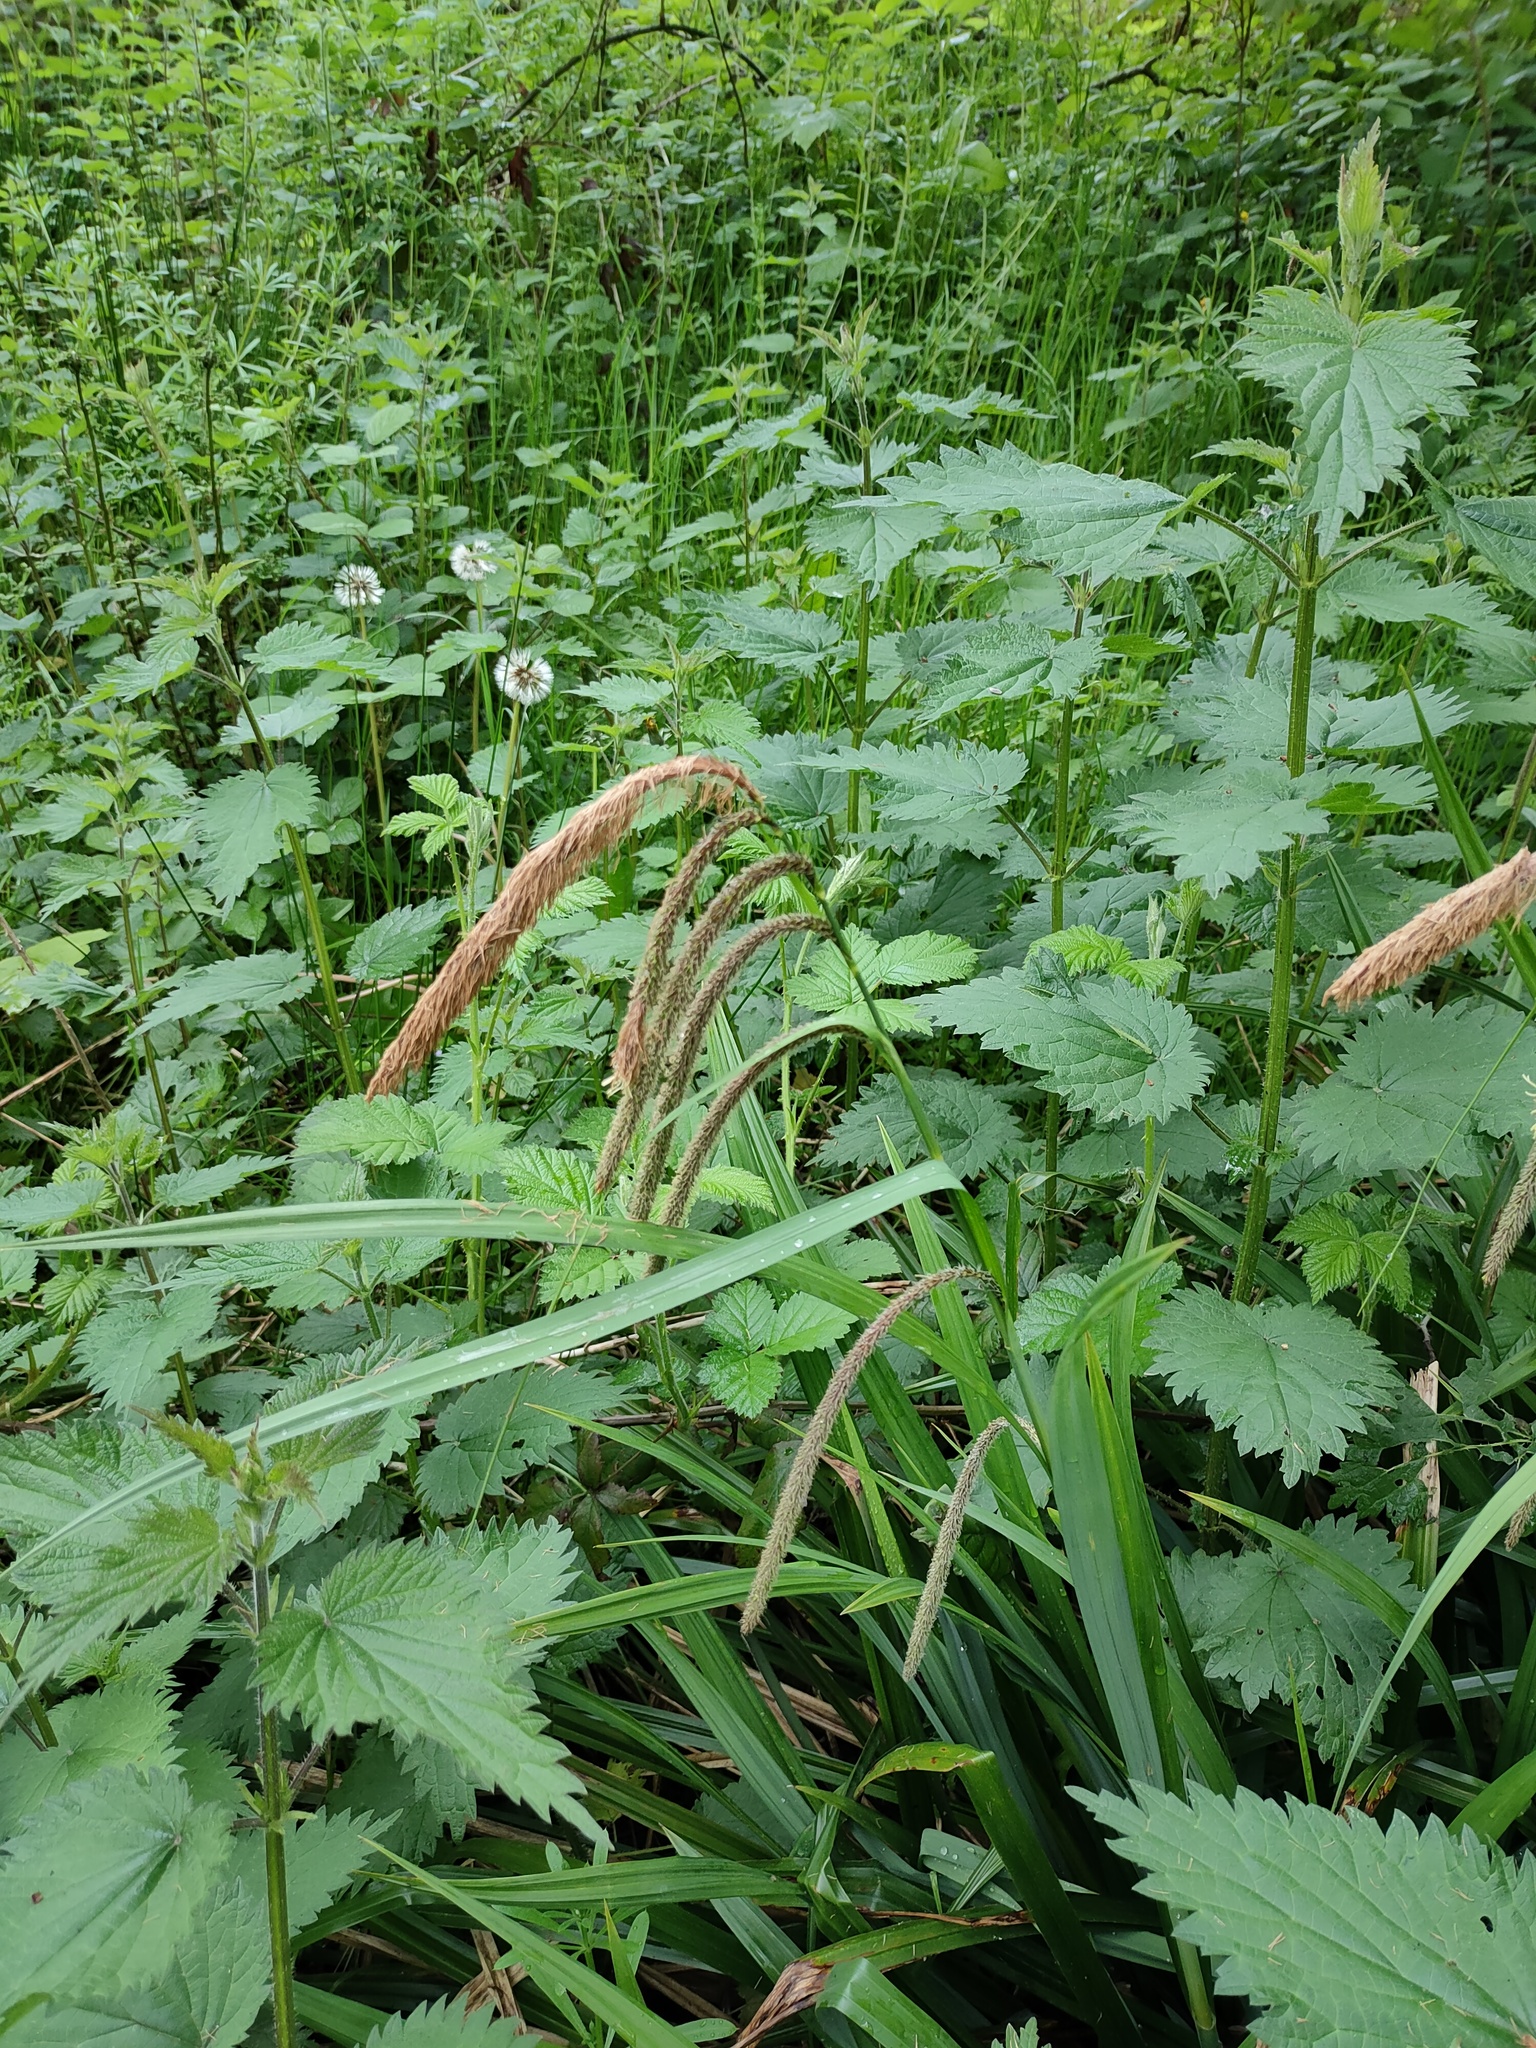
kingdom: Plantae
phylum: Tracheophyta
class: Liliopsida
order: Poales
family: Cyperaceae
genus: Carex
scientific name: Carex pendula
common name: Pendulous sedge
